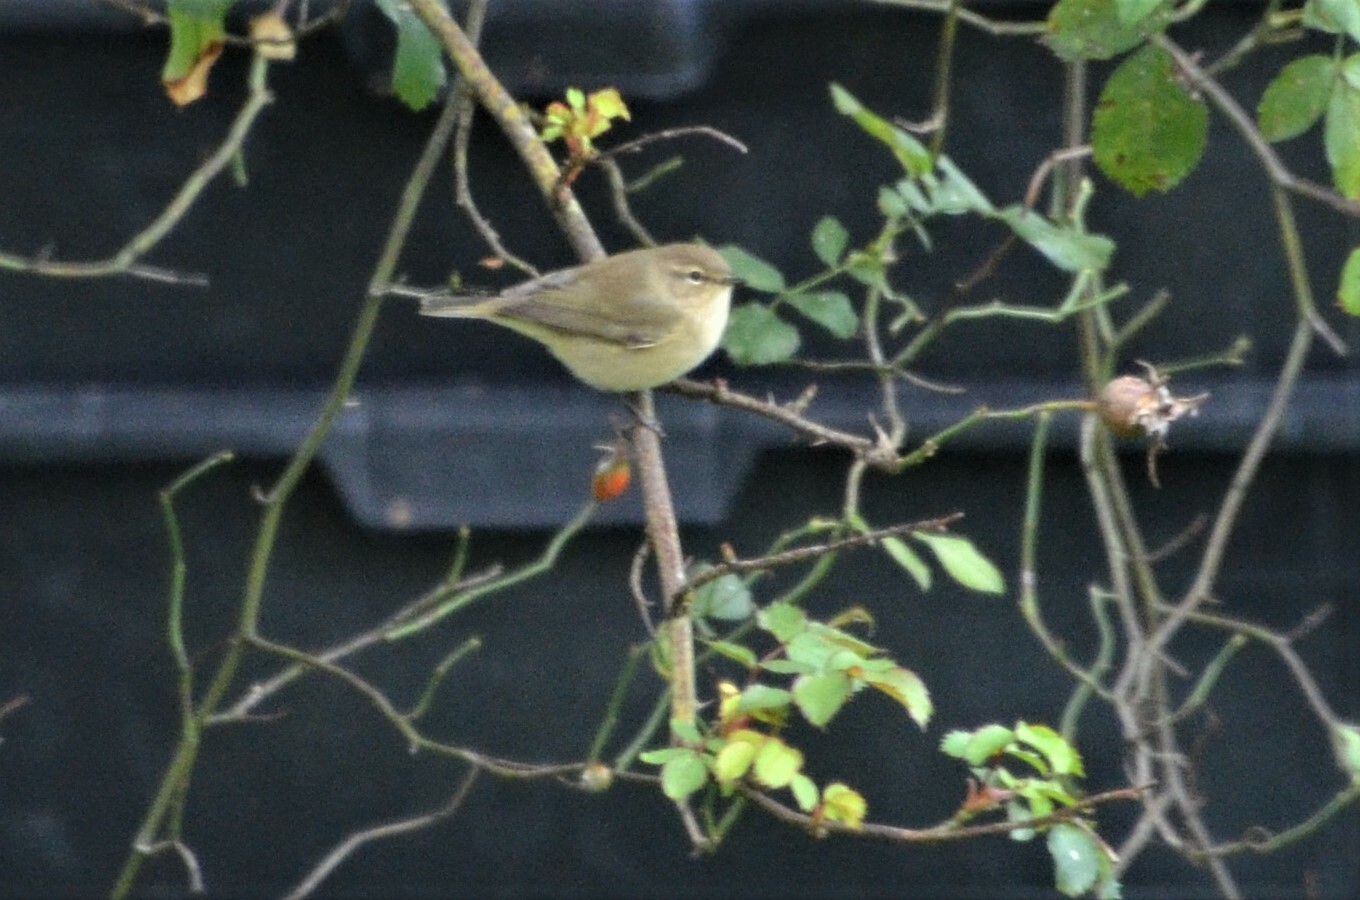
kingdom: Animalia
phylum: Chordata
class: Aves
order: Passeriformes
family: Phylloscopidae
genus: Phylloscopus
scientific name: Phylloscopus collybita
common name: Common chiffchaff
